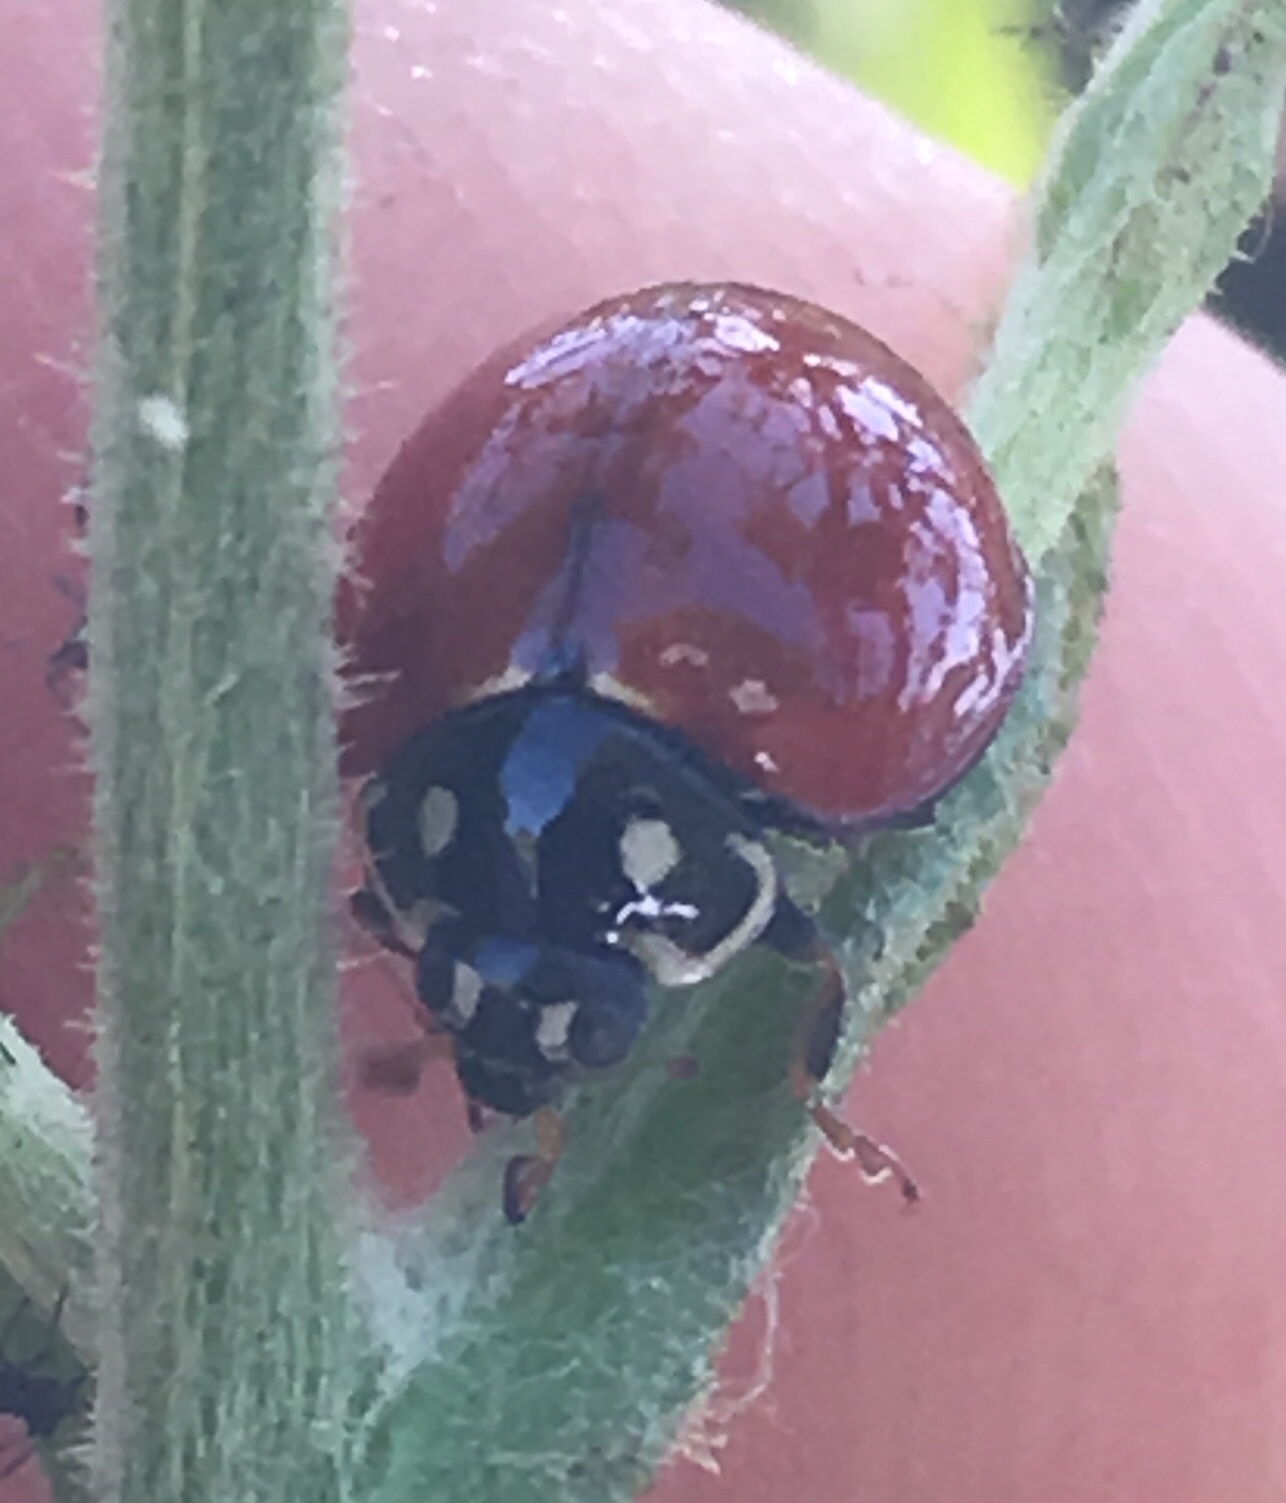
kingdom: Animalia
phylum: Arthropoda
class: Insecta
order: Coleoptera
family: Coccinellidae
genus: Cycloneda
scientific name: Cycloneda sanguinea
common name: Ladybird beetle
